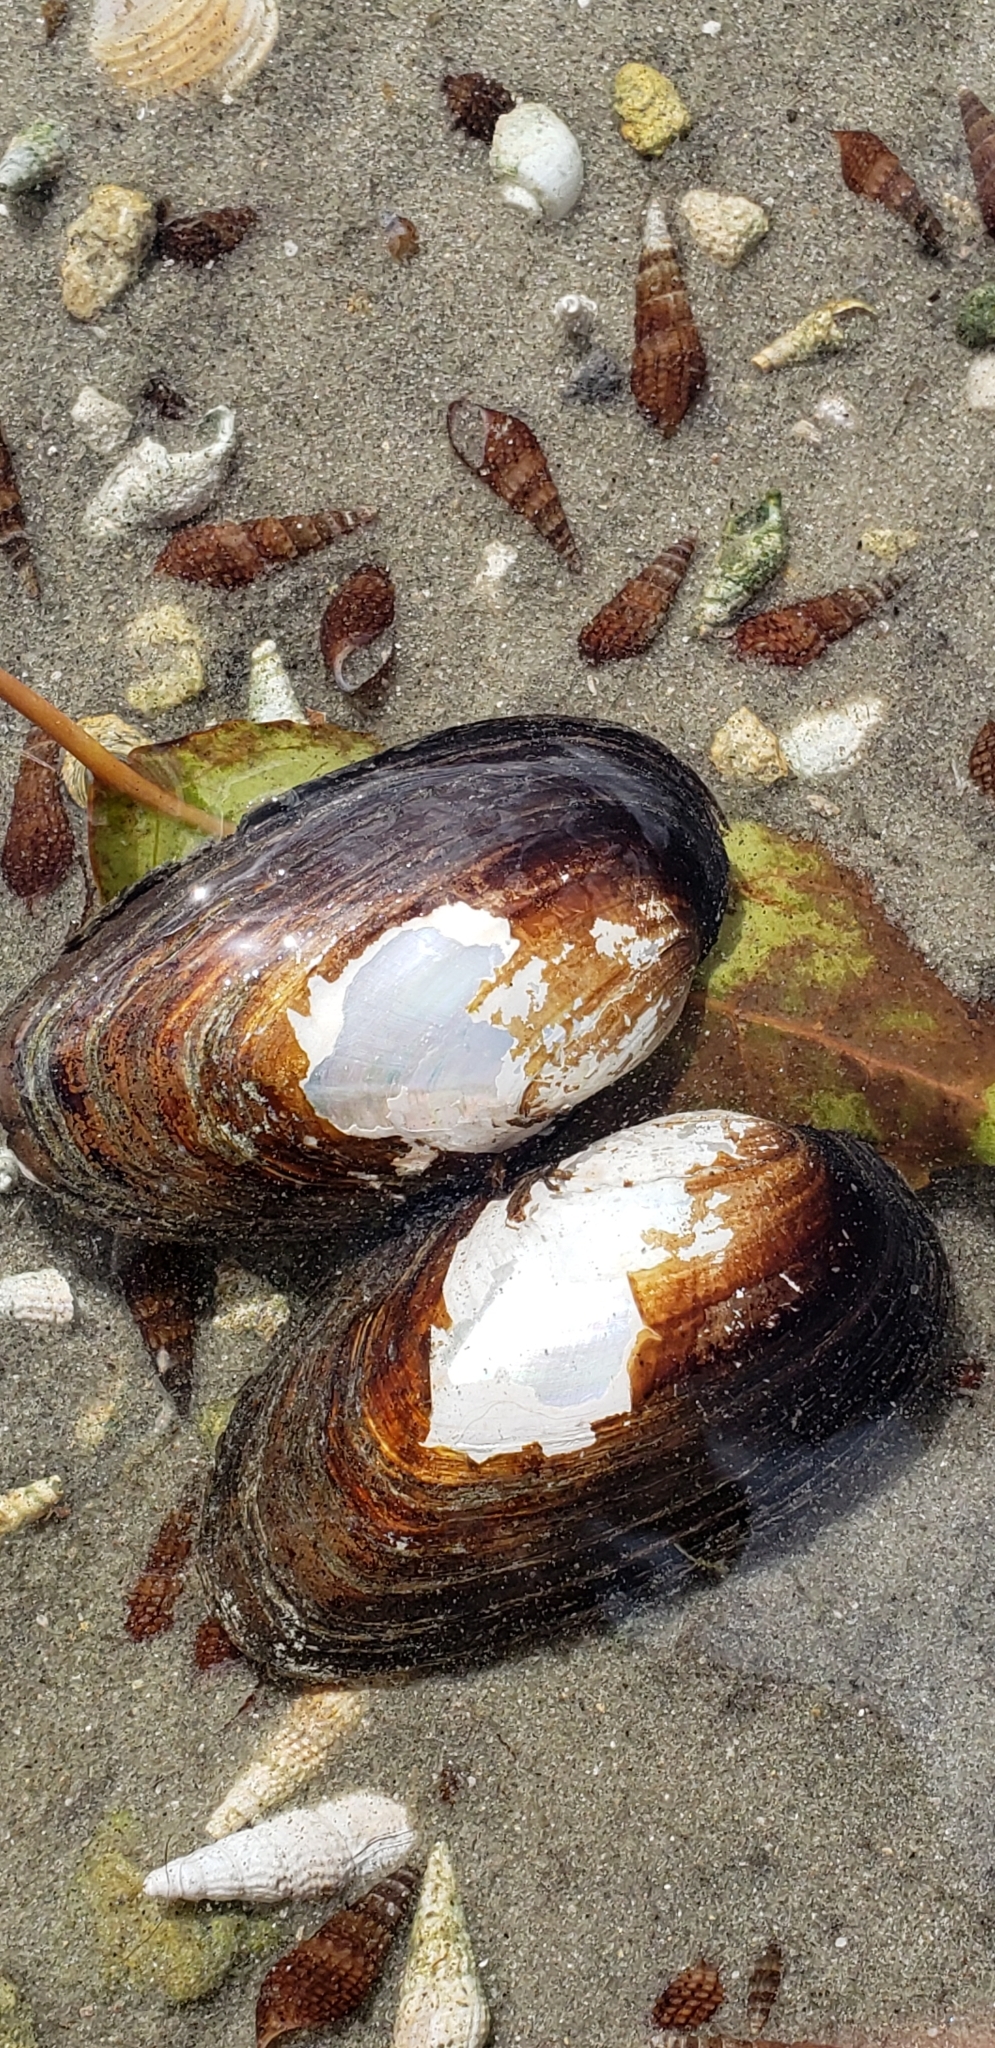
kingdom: Animalia
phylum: Mollusca
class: Bivalvia
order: Unionida
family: Unionidae
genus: Elliptio
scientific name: Elliptio jayensis
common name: Florida spike
